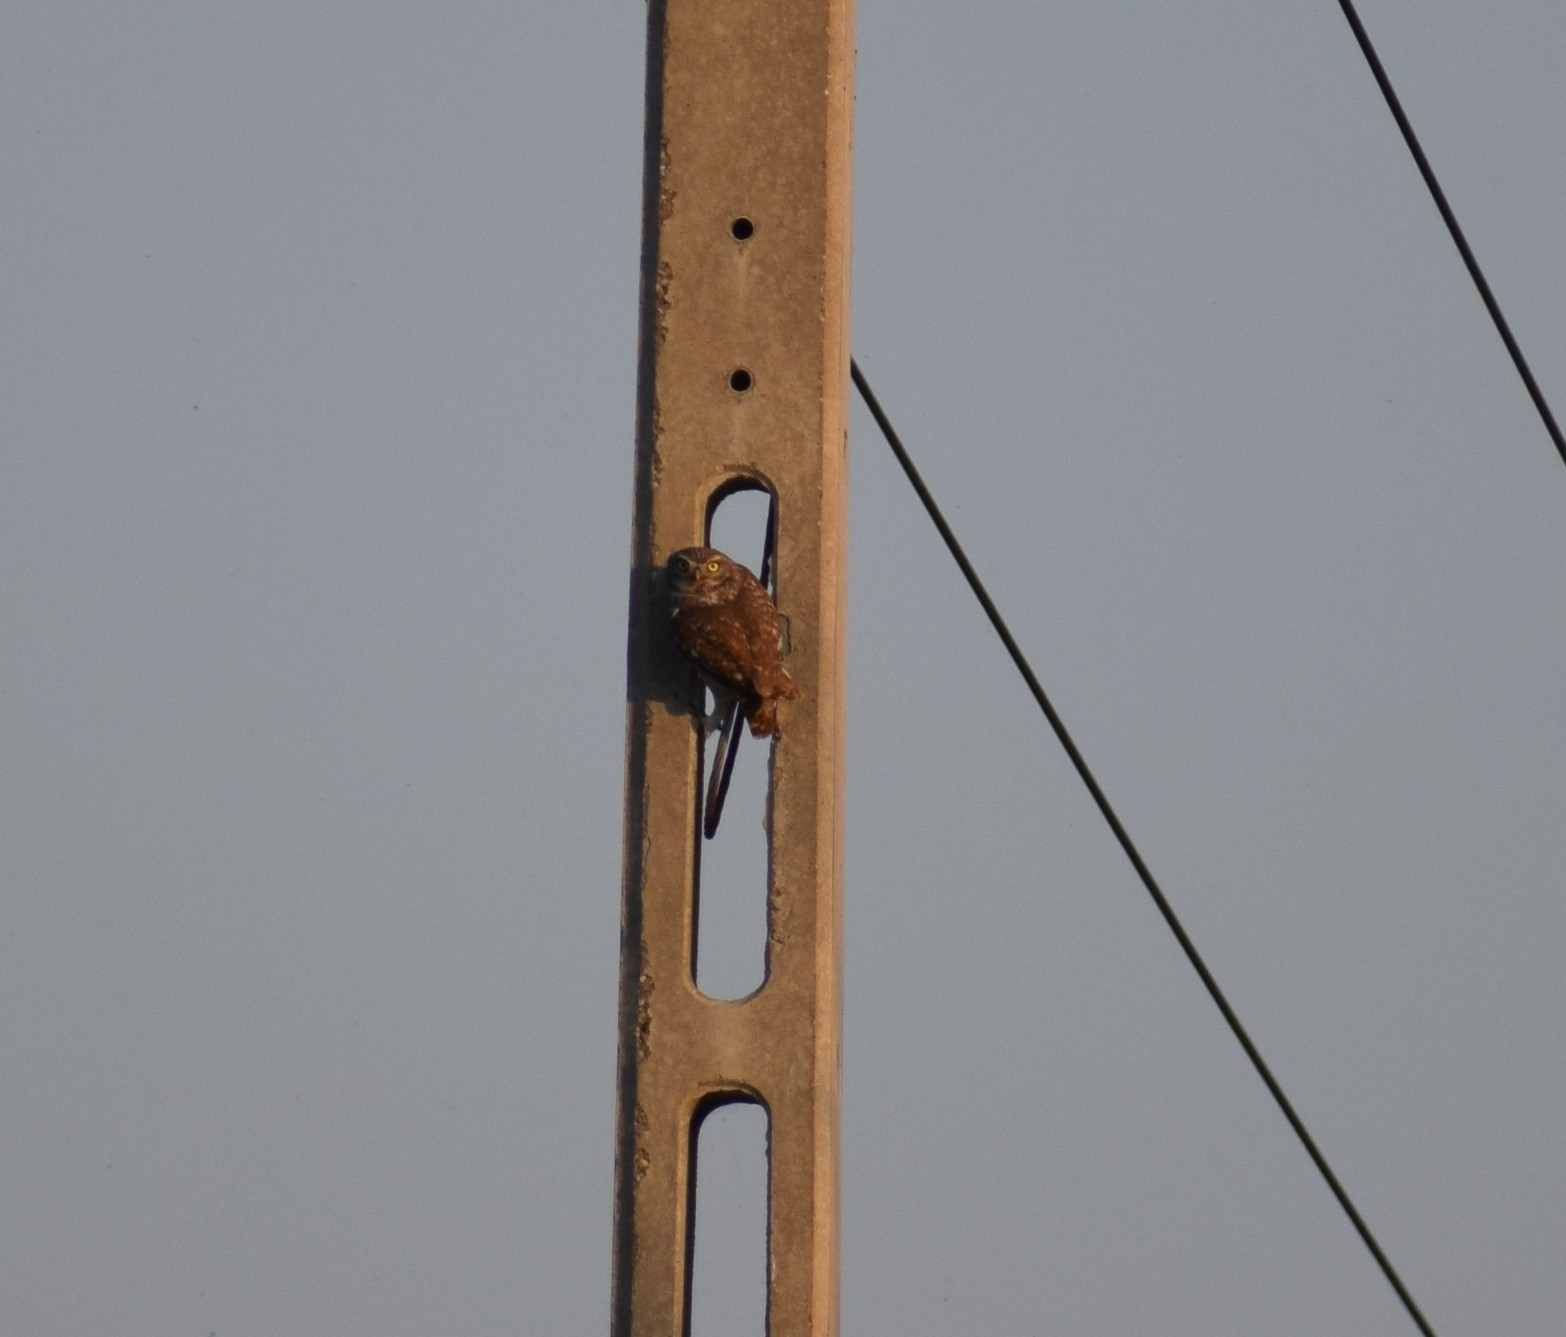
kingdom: Animalia
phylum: Chordata
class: Aves
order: Strigiformes
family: Strigidae
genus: Athene
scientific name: Athene noctua
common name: Little owl
